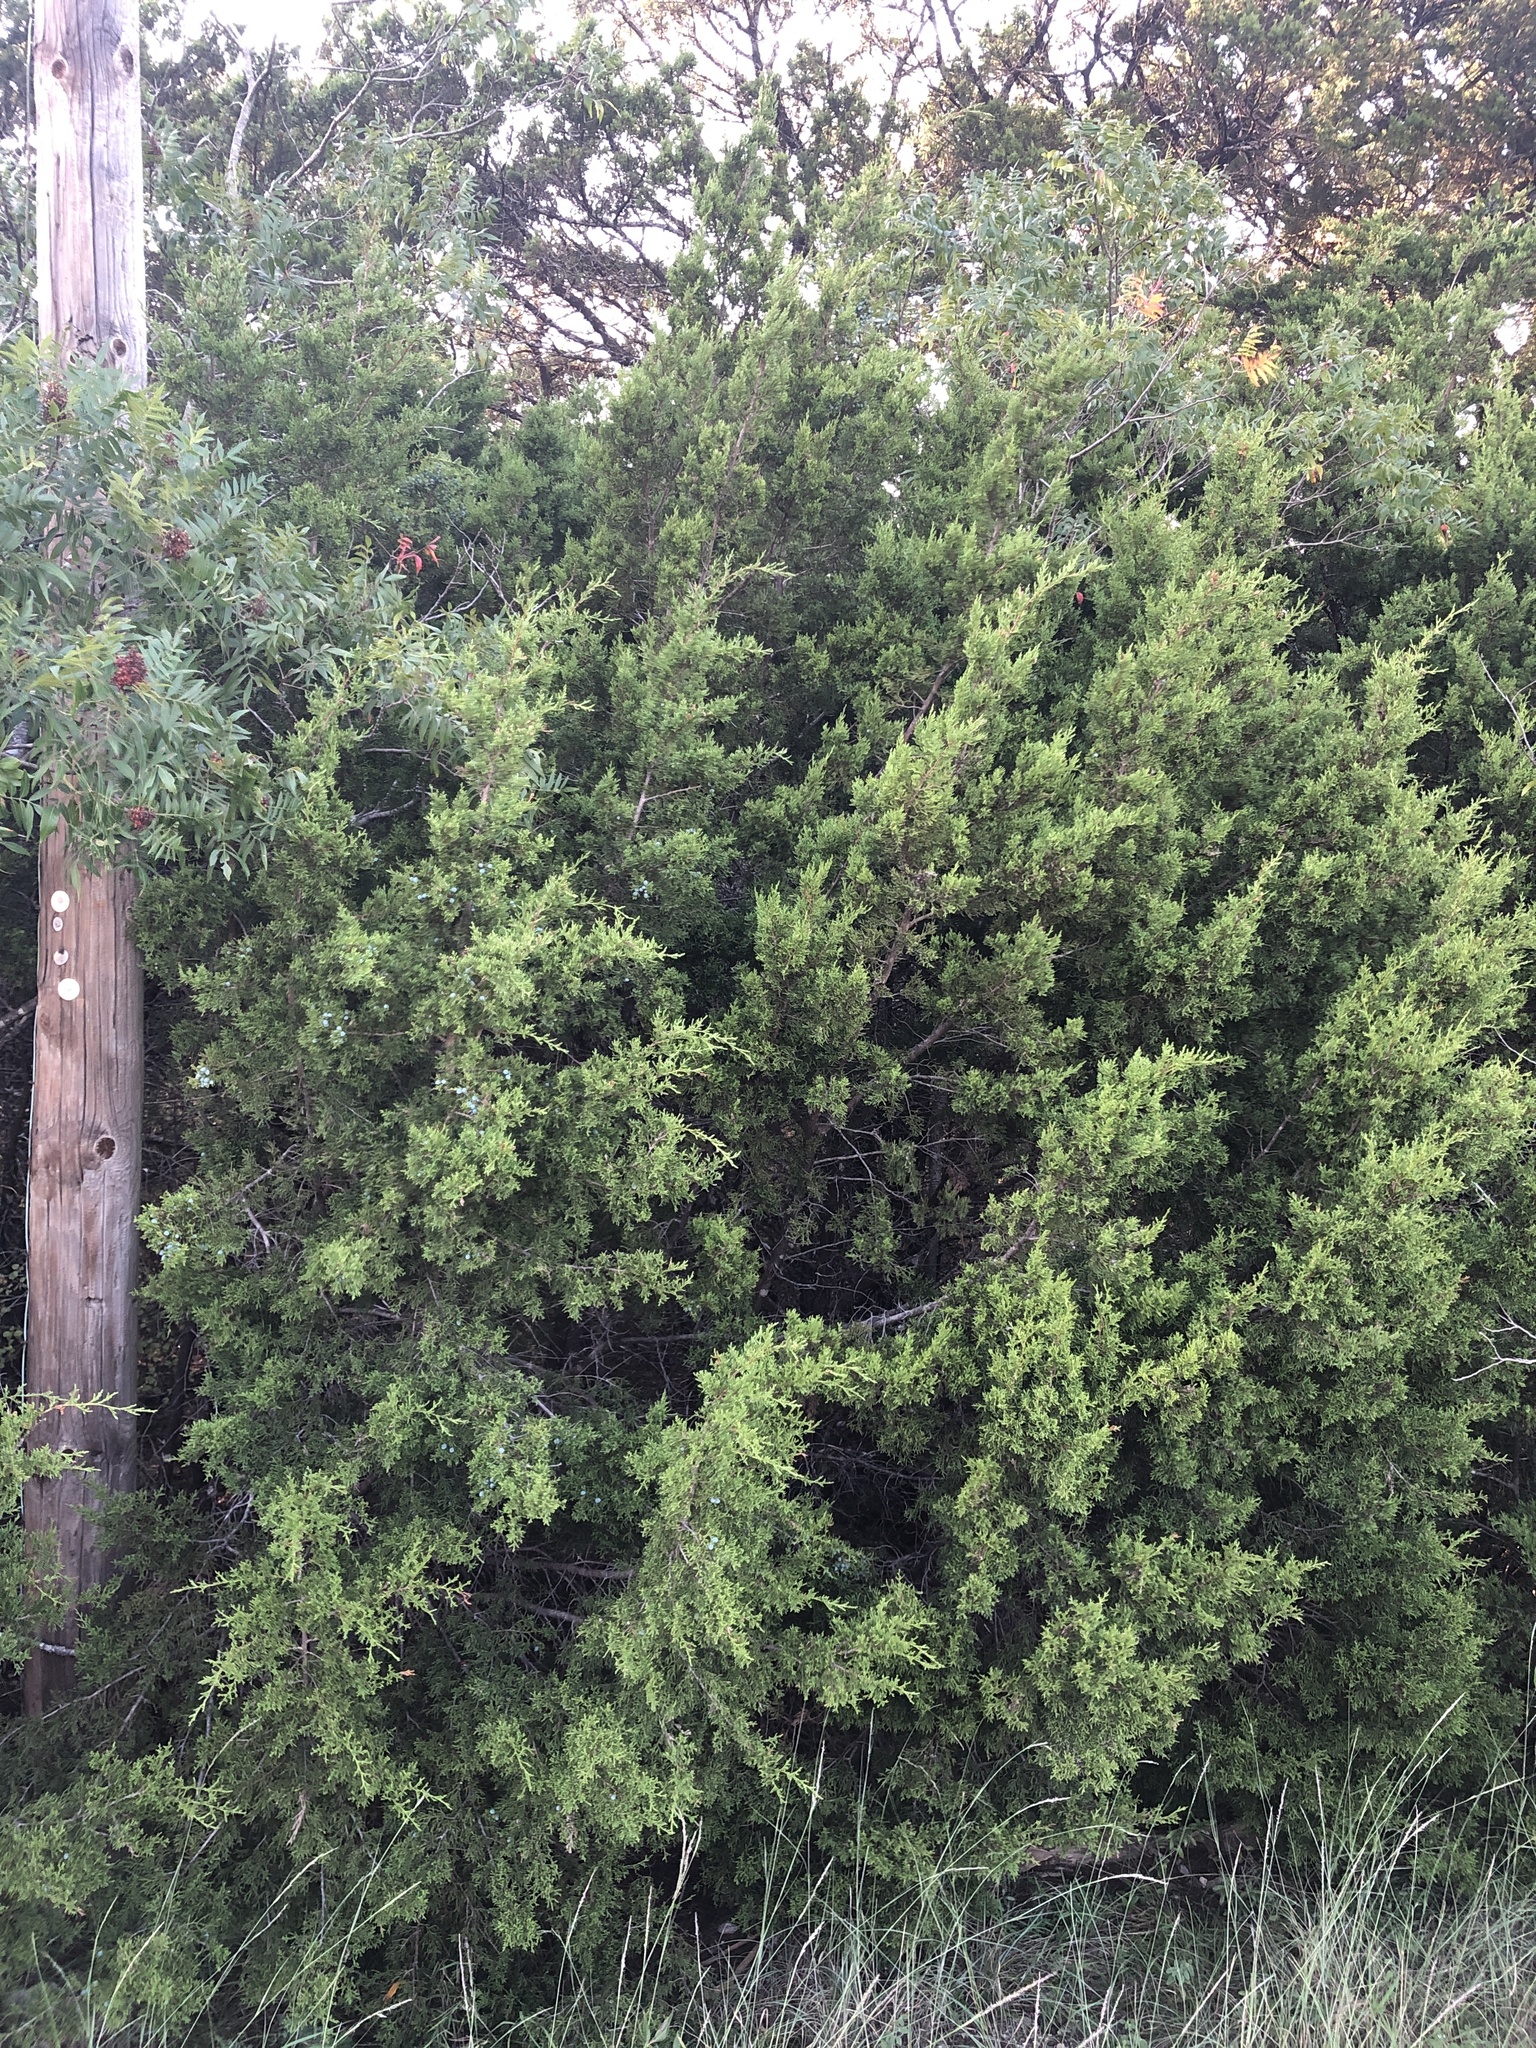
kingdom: Plantae
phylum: Tracheophyta
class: Pinopsida
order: Pinales
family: Cupressaceae
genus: Juniperus
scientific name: Juniperus ashei
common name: Mexican juniper
